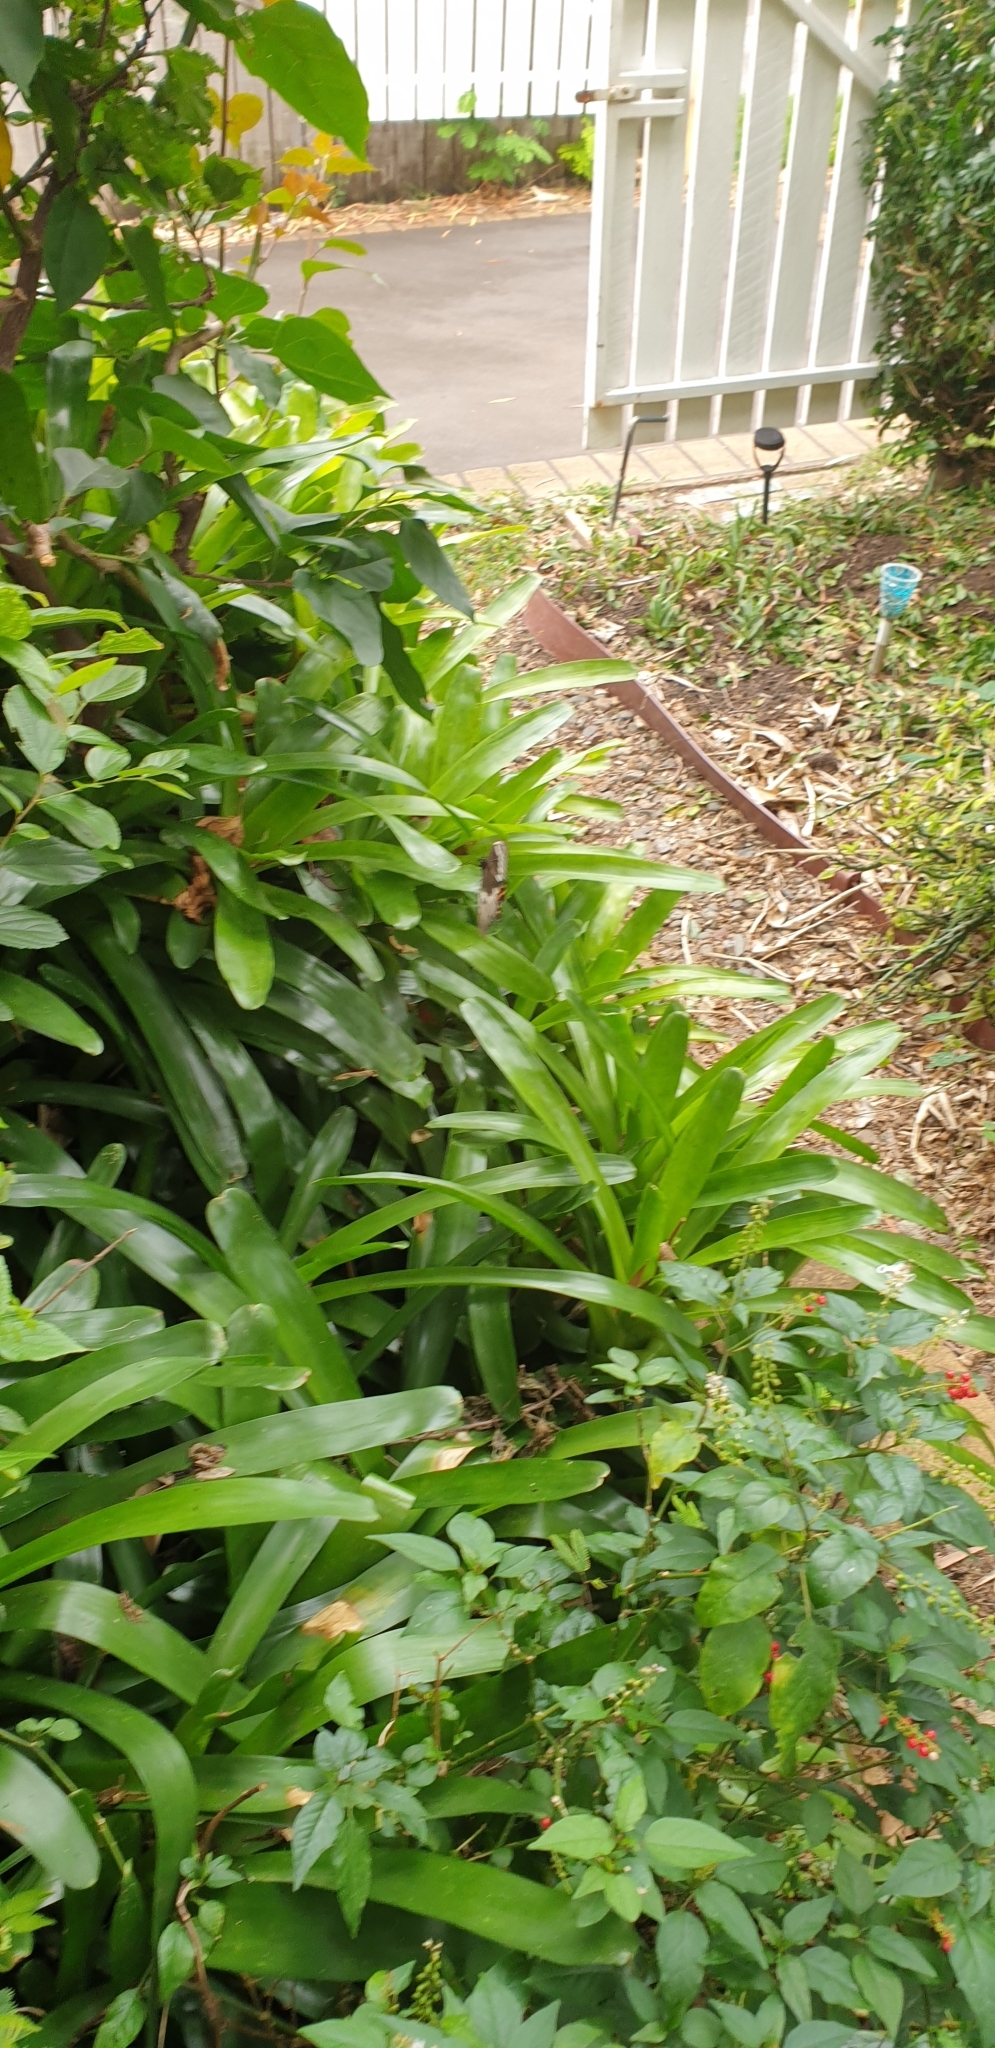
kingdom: Animalia
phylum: Arthropoda
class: Insecta
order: Lepidoptera
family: Papilionidae
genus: Papilio
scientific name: Papilio aegeus
